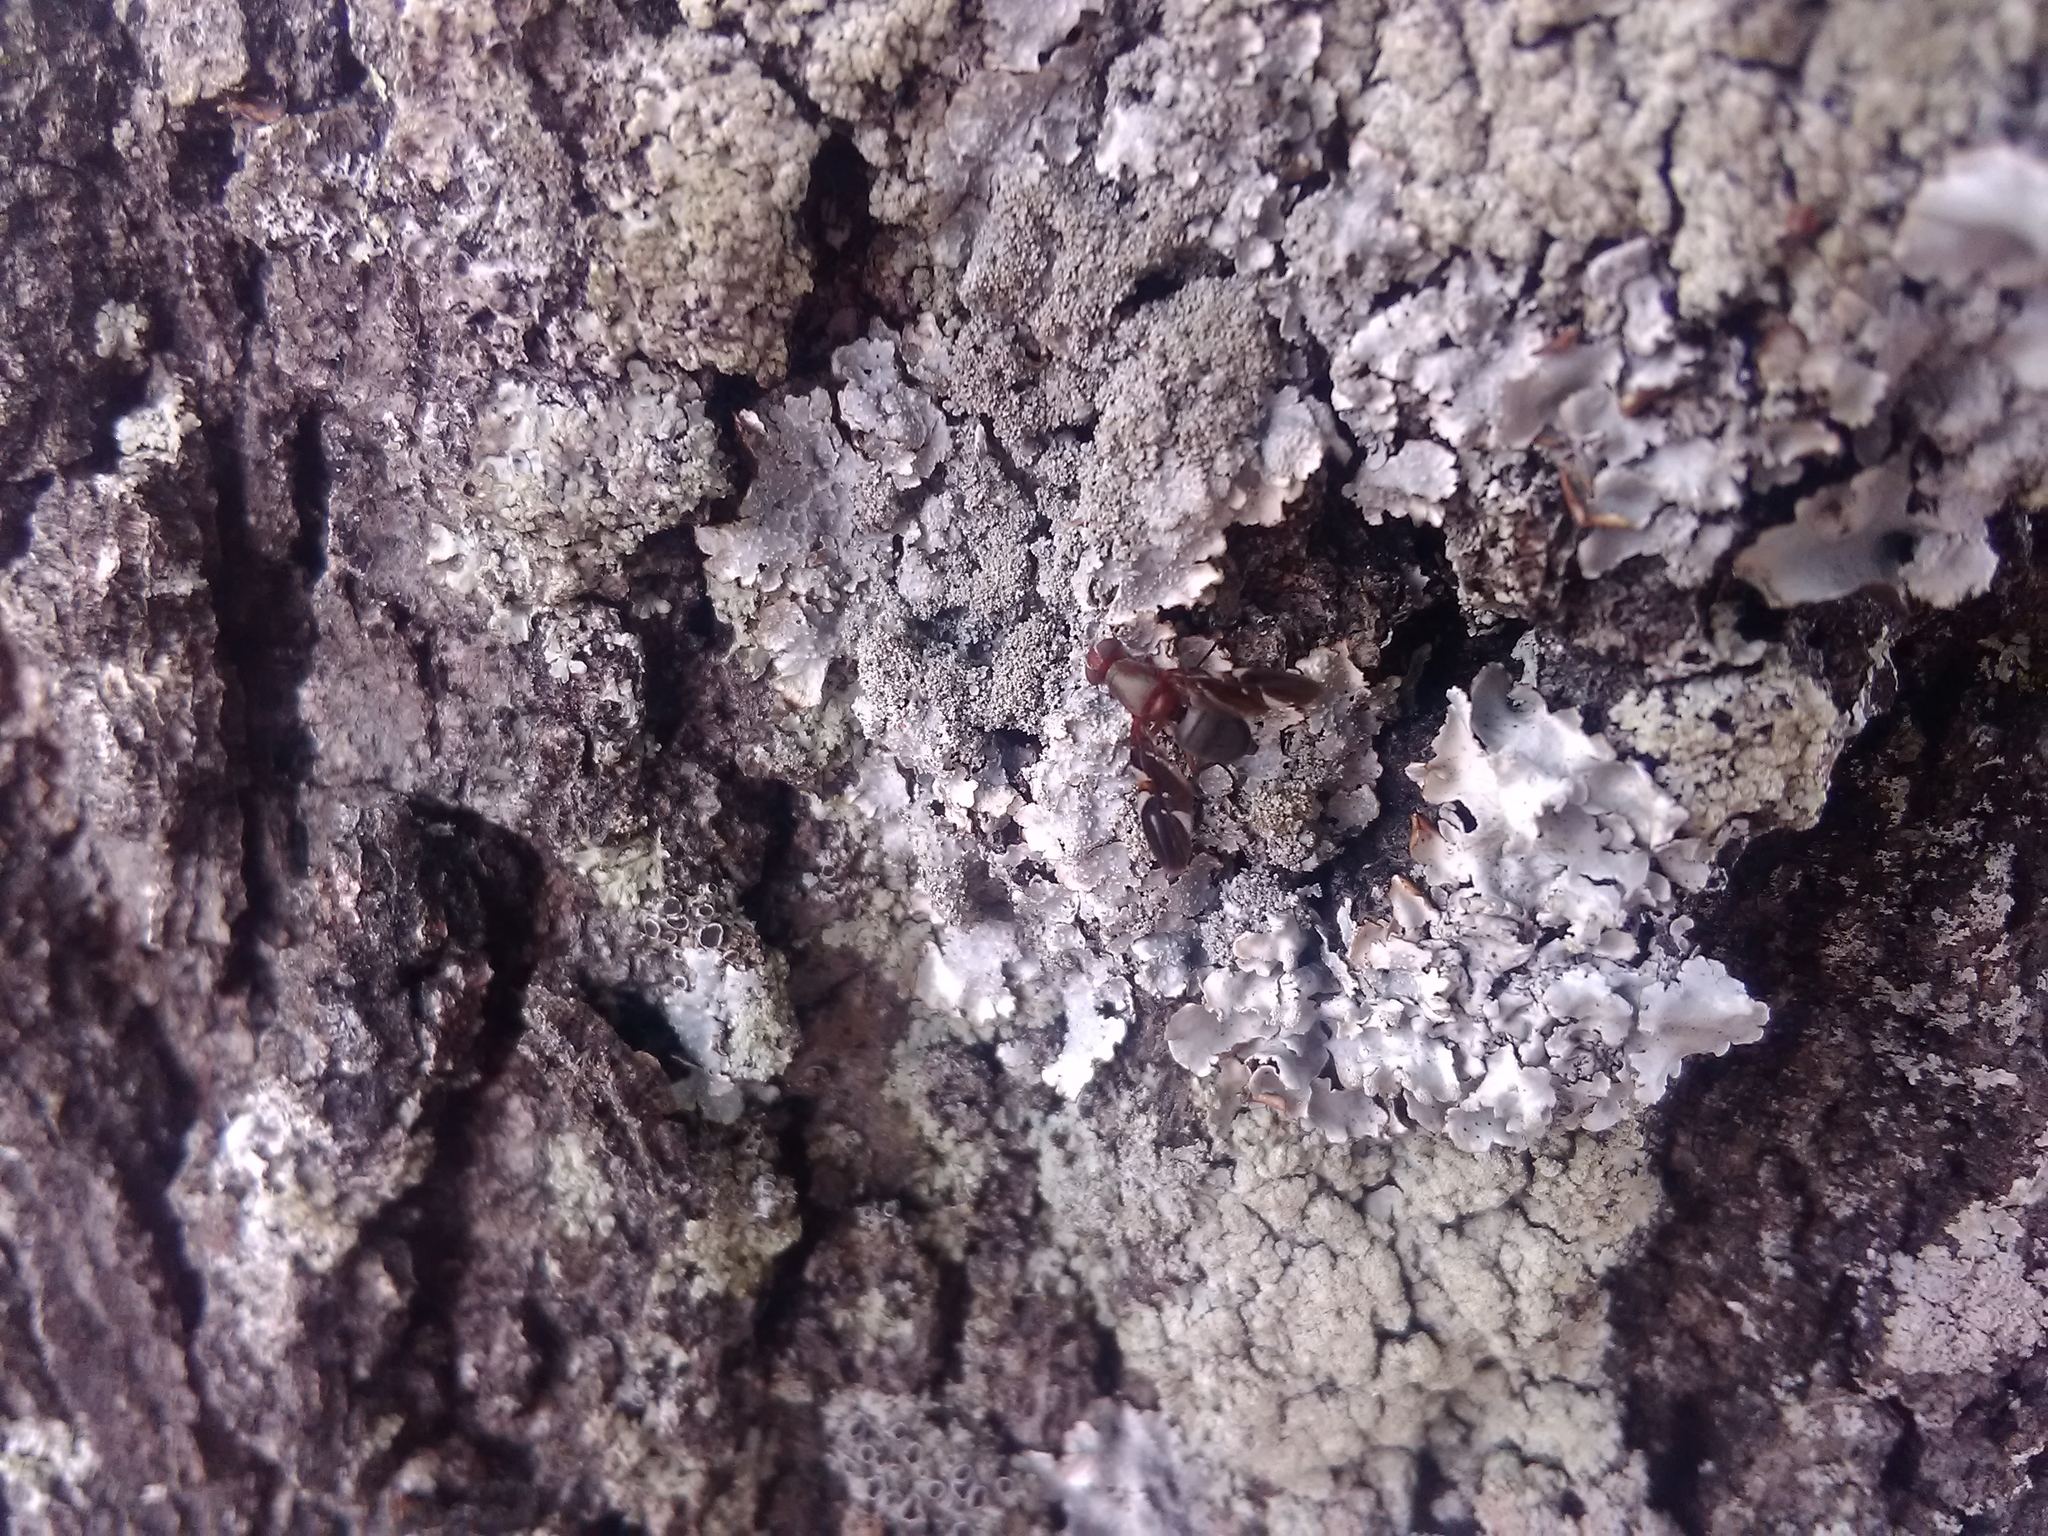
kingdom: Animalia
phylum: Arthropoda
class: Insecta
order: Diptera
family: Ulidiidae
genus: Delphinia
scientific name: Delphinia picta
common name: Common picture-winged fly
